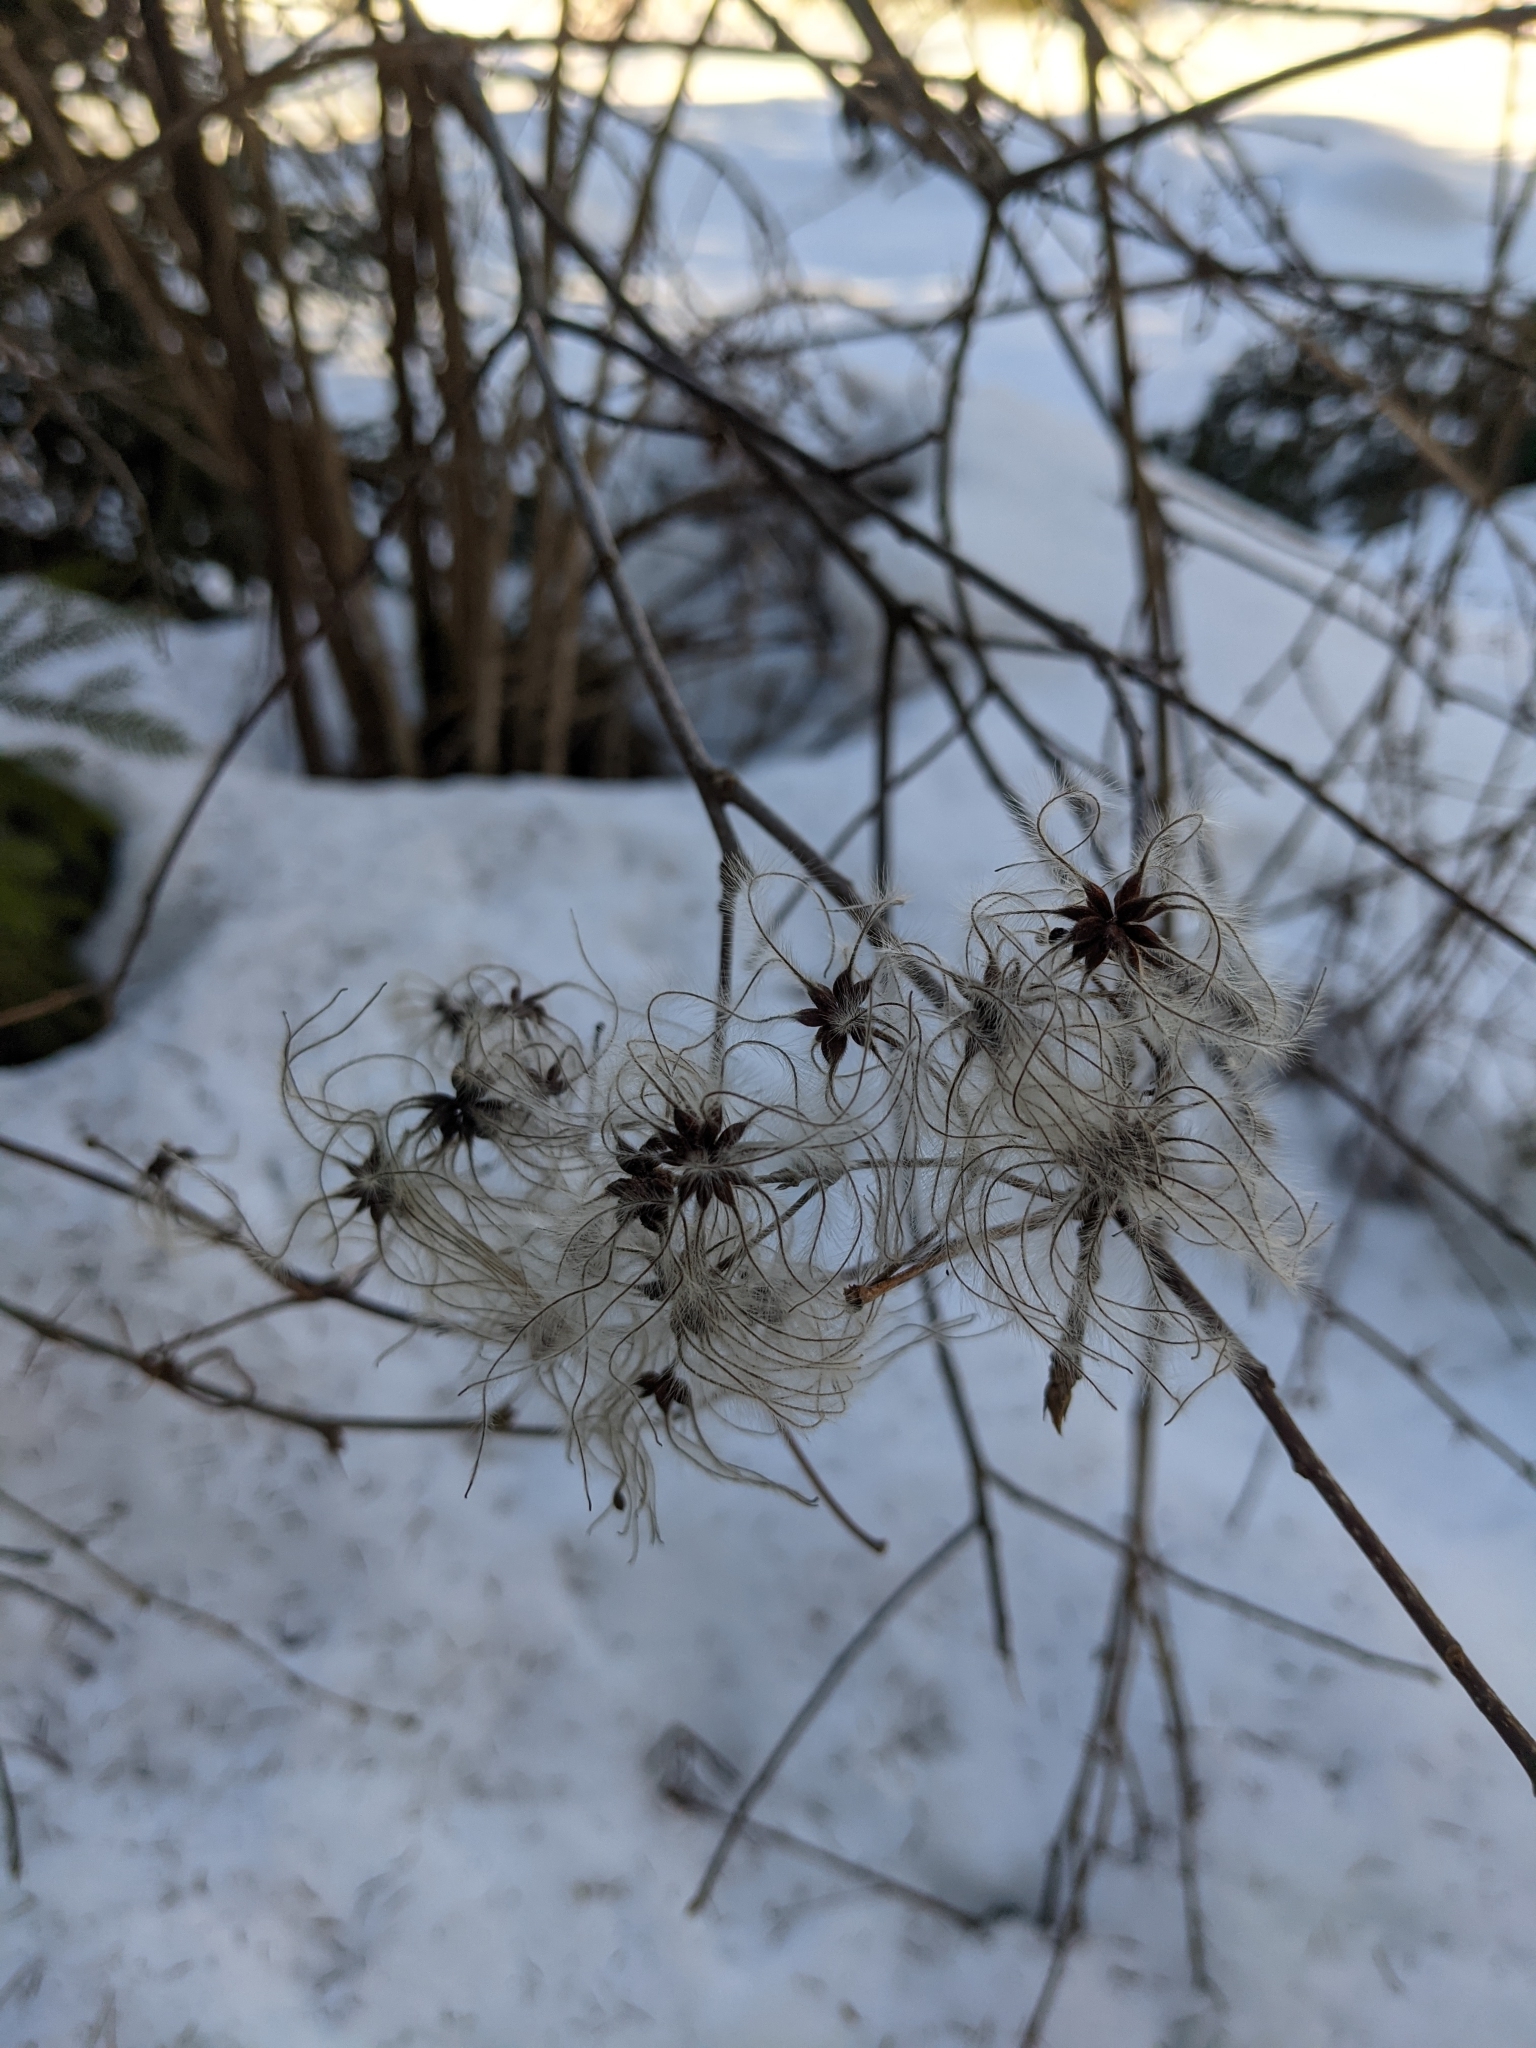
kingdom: Plantae
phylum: Tracheophyta
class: Magnoliopsida
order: Ranunculales
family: Ranunculaceae
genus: Clematis
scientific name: Clematis vitalba
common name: Evergreen clematis
